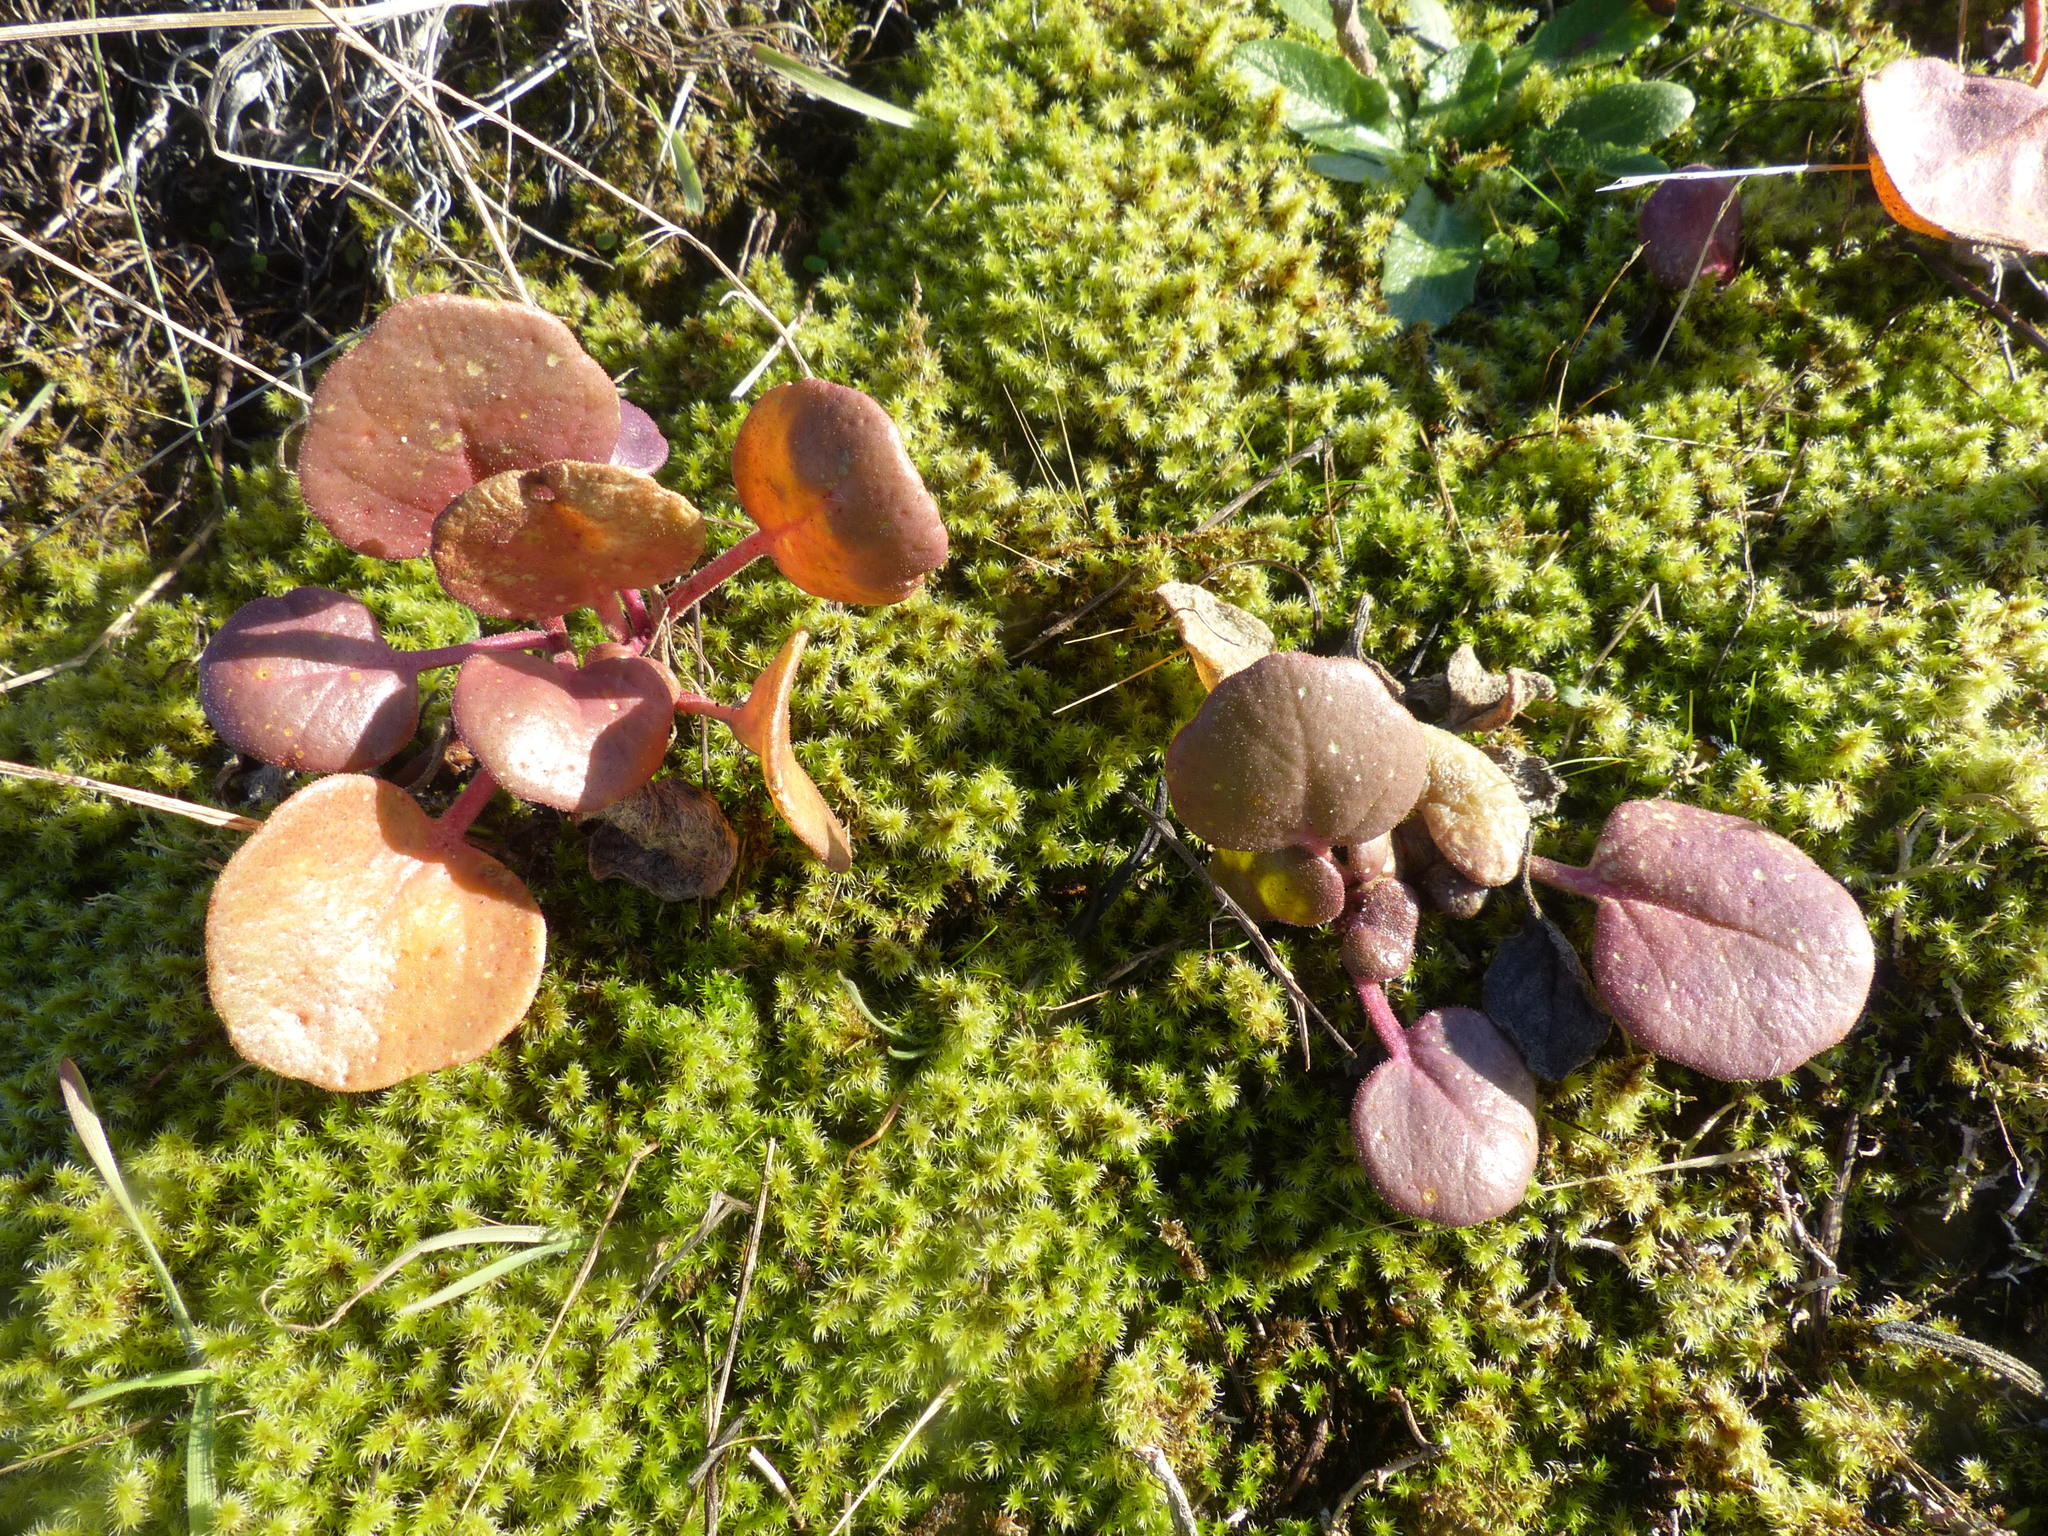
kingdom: Plantae
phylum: Tracheophyta
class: Magnoliopsida
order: Caryophyllales
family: Nyctaginaceae
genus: Abronia
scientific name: Abronia latifolia
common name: Yellow sand-verbena
